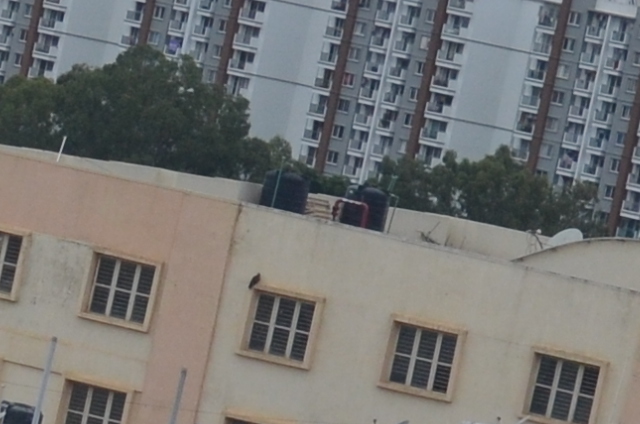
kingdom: Animalia
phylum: Chordata
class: Aves
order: Accipitriformes
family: Accipitridae
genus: Milvus
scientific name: Milvus migrans
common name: Black kite
